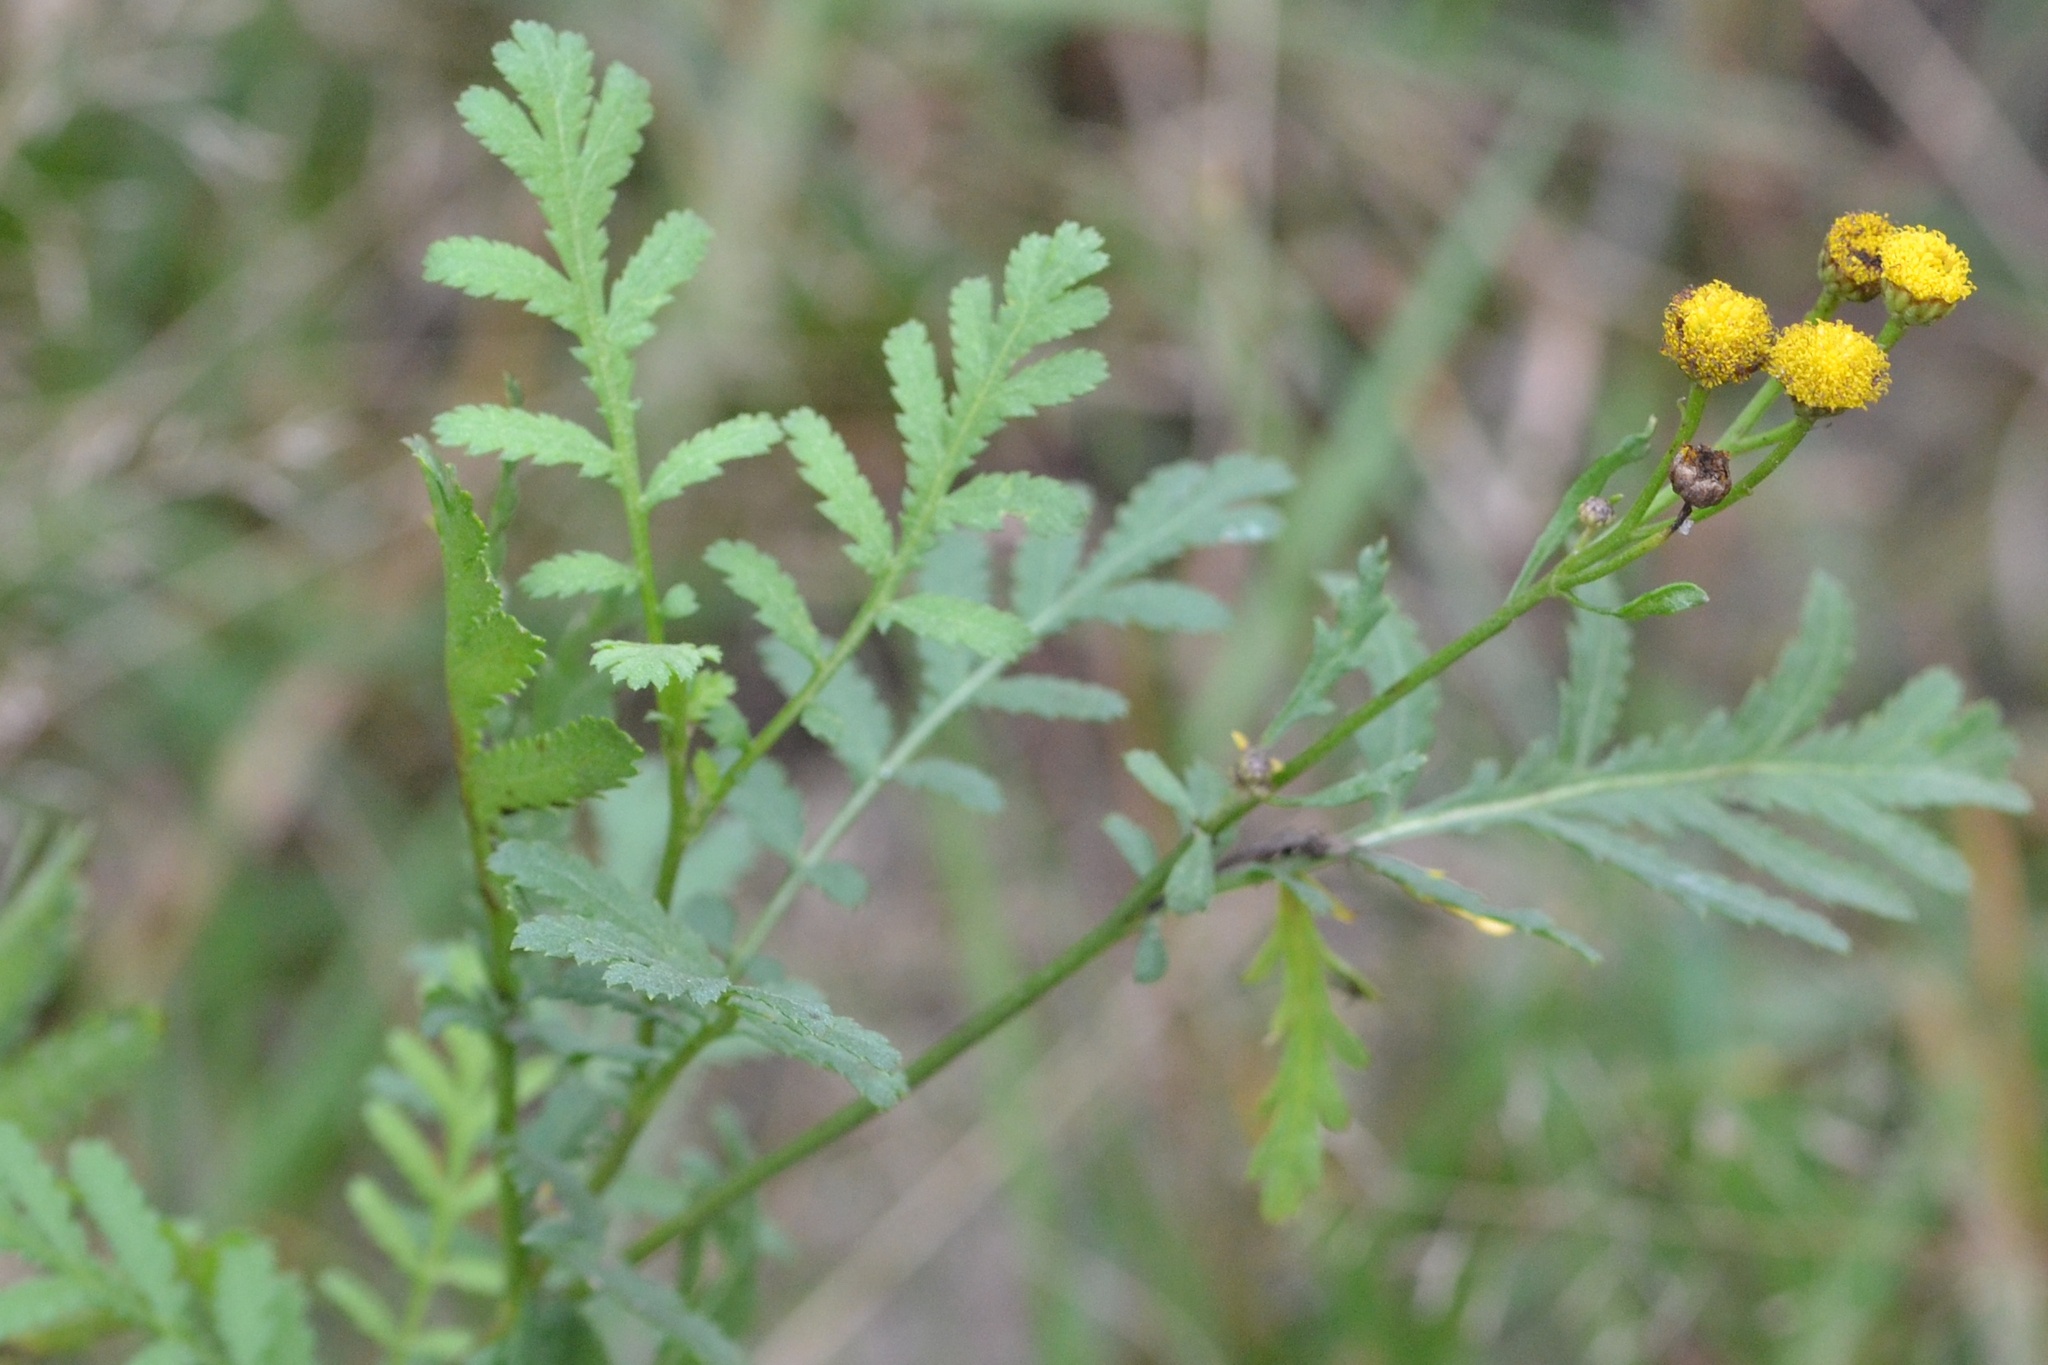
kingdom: Plantae
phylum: Tracheophyta
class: Magnoliopsida
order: Asterales
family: Asteraceae
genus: Tanacetum
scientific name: Tanacetum vulgare
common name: Common tansy
